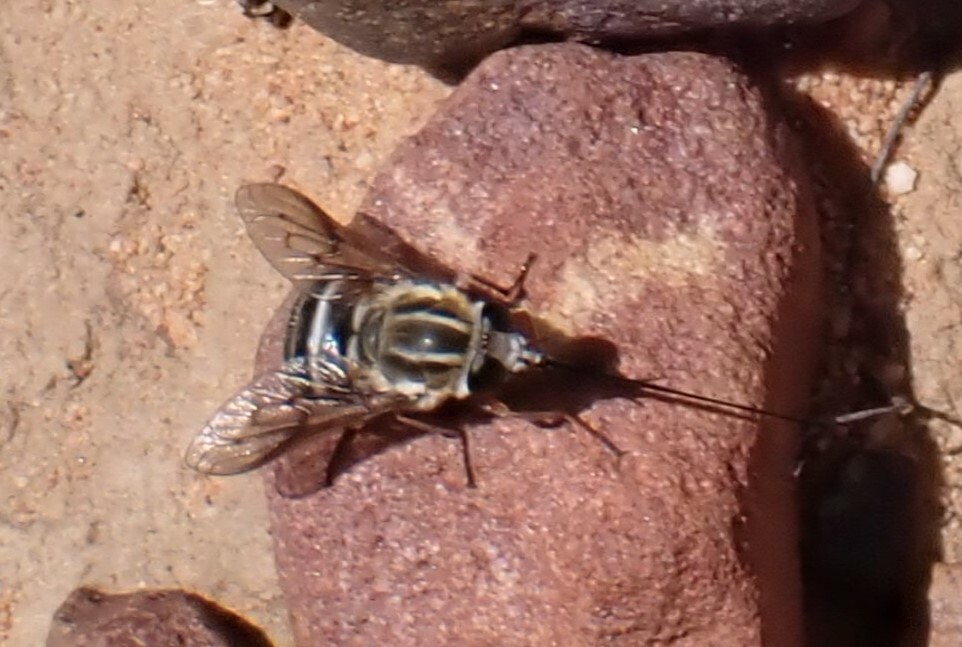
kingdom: Animalia
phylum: Arthropoda
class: Insecta
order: Diptera
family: Tabanidae
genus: Philoliche
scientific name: Philoliche gulosa
